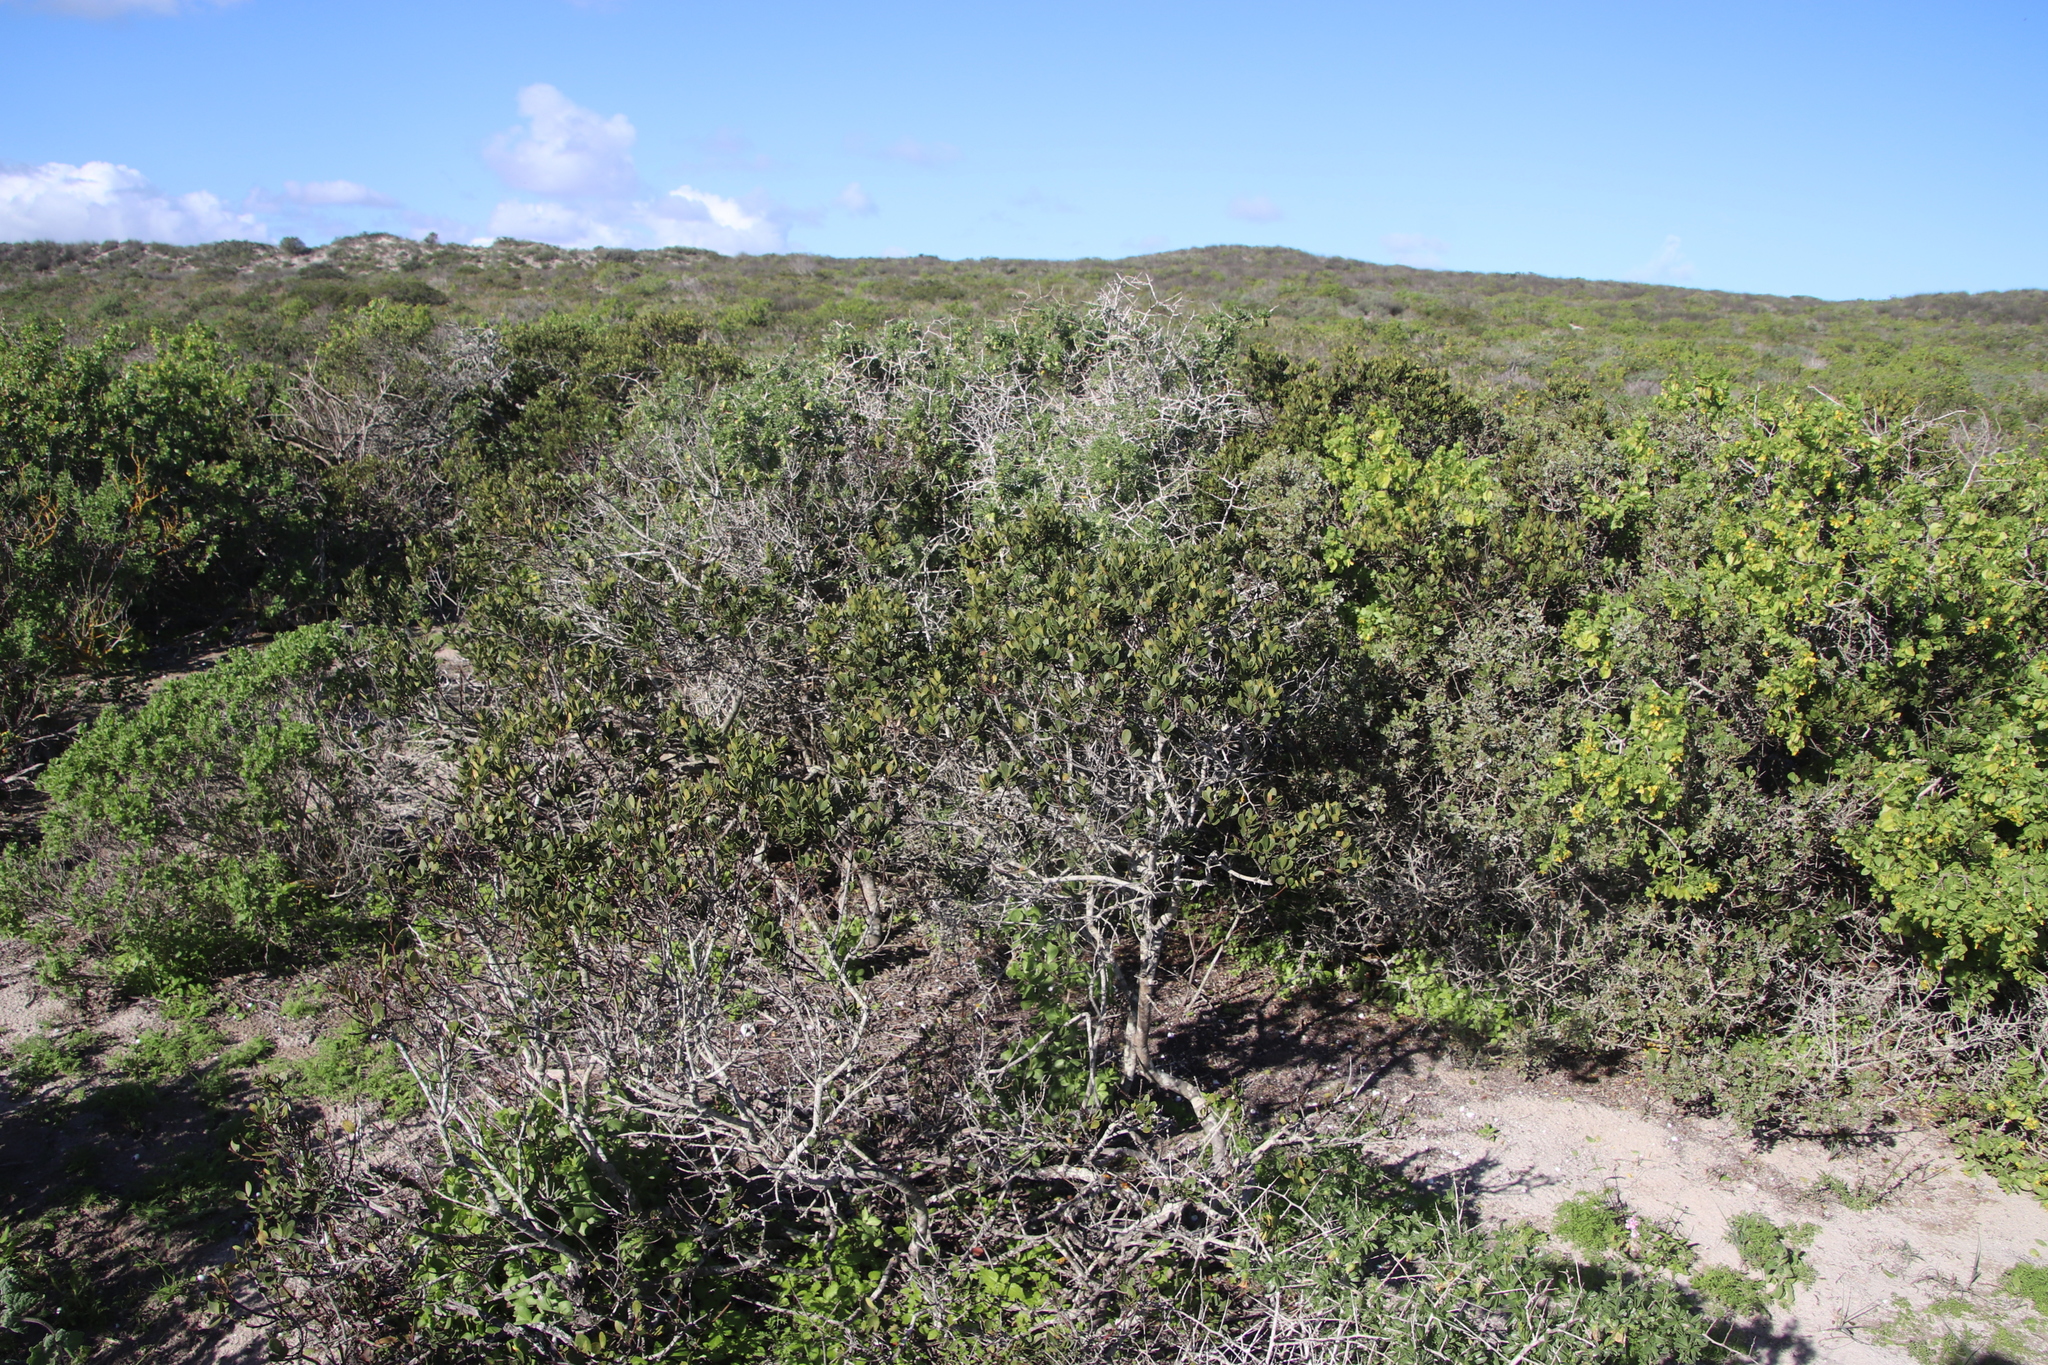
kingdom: Plantae
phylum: Tracheophyta
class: Magnoliopsida
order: Ericales
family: Ebenaceae
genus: Euclea
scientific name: Euclea racemosa
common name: Dune guarri
